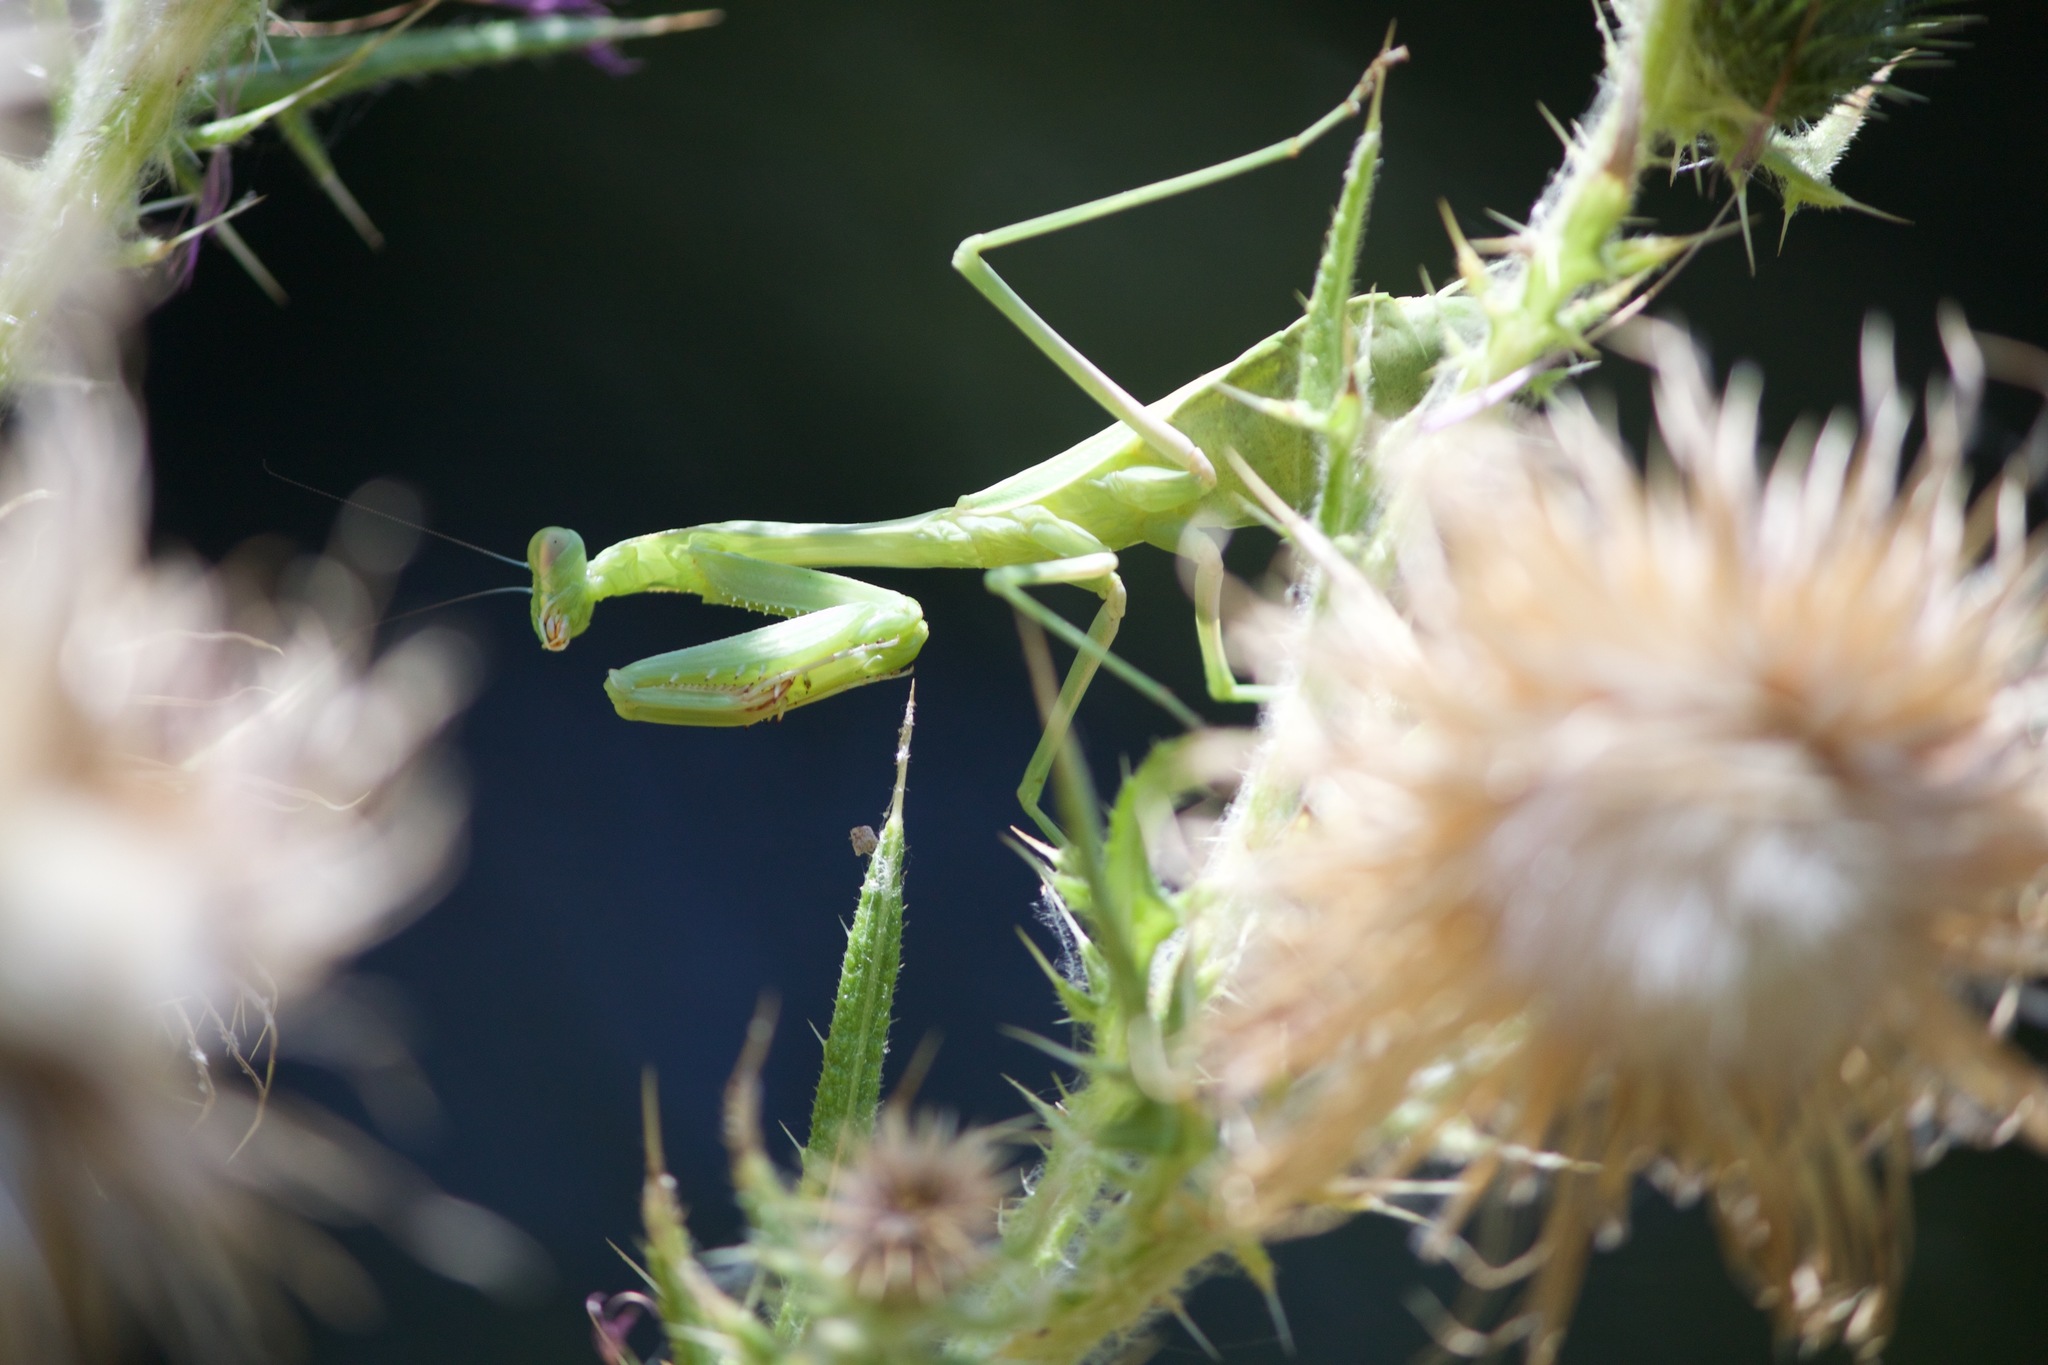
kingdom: Animalia
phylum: Arthropoda
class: Insecta
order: Mantodea
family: Mantidae
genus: Mantis
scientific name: Mantis religiosa
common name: Praying mantis
